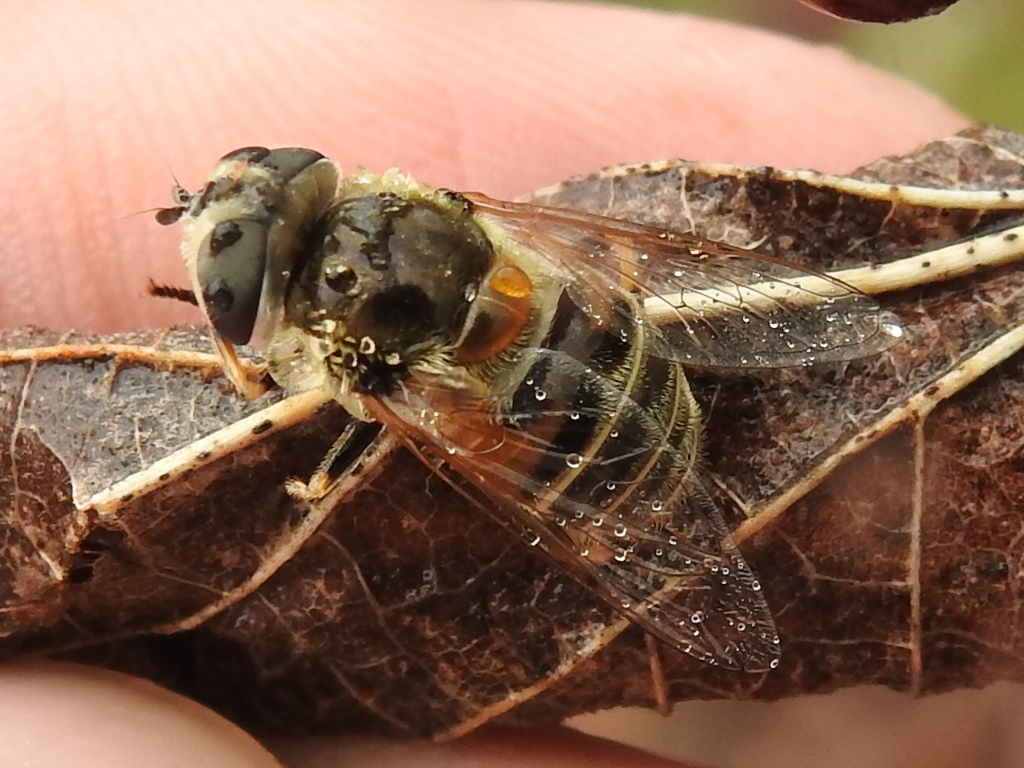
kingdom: Animalia
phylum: Arthropoda
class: Insecta
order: Diptera
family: Syrphidae
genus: Eristalis
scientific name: Eristalis stipator
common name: Yellow-shouldered drone fly
